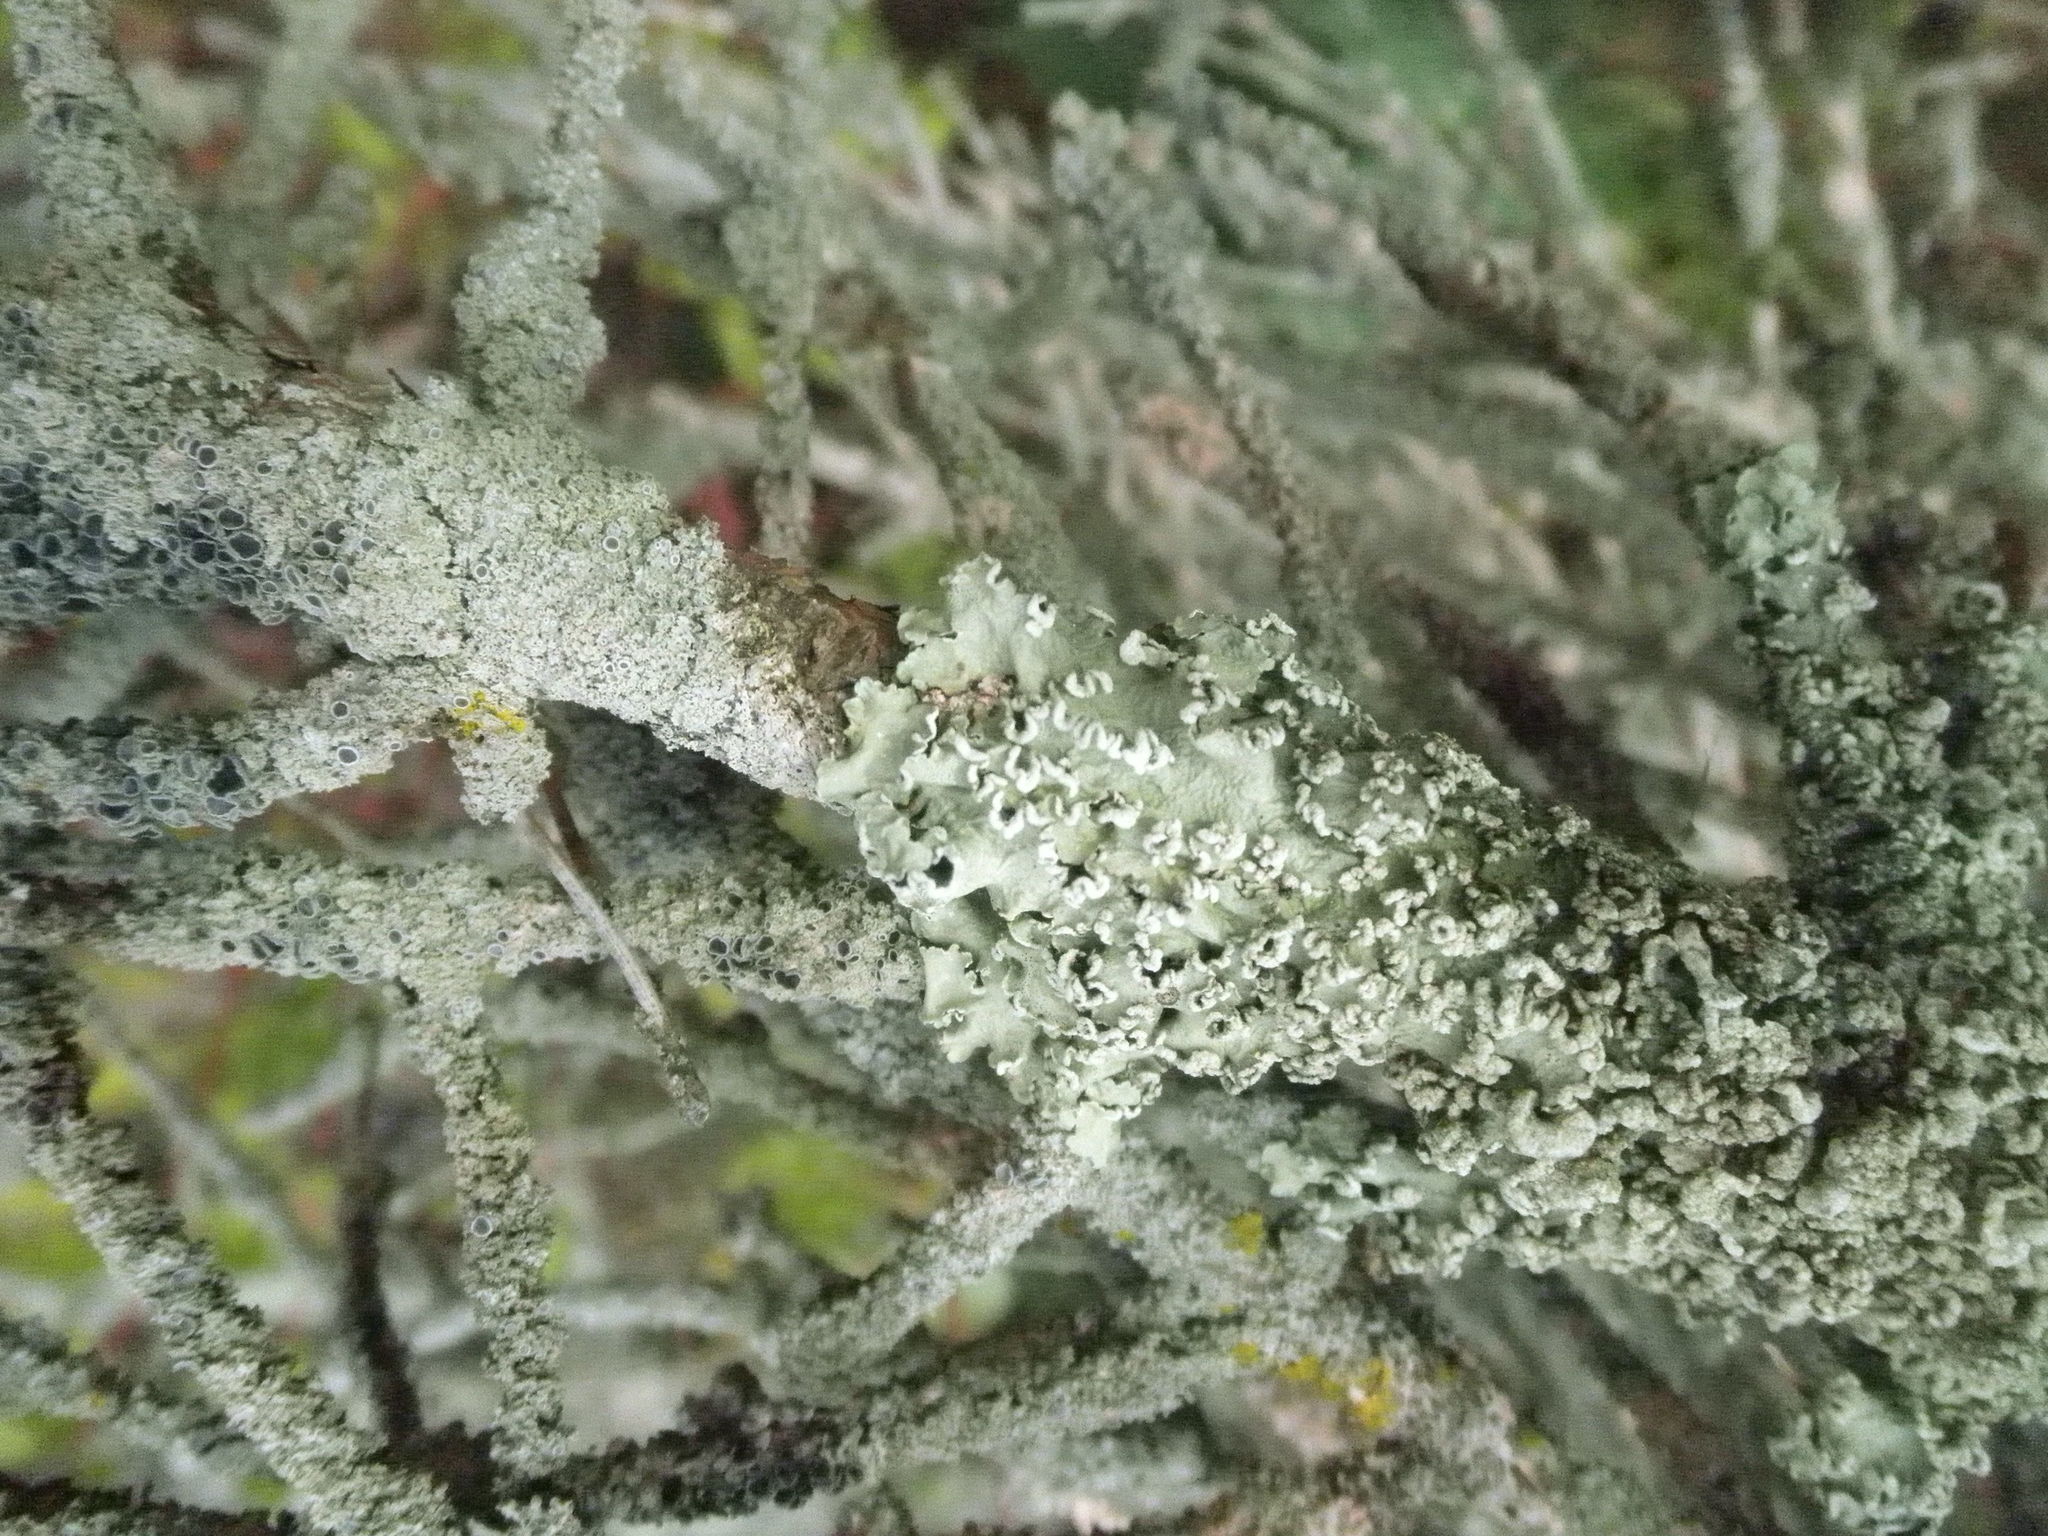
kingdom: Fungi
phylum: Ascomycota
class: Lecanoromycetes
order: Lecanorales
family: Parmeliaceae
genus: Flavopunctelia
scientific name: Flavopunctelia soredica
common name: Powder-edged speckled greenshield
